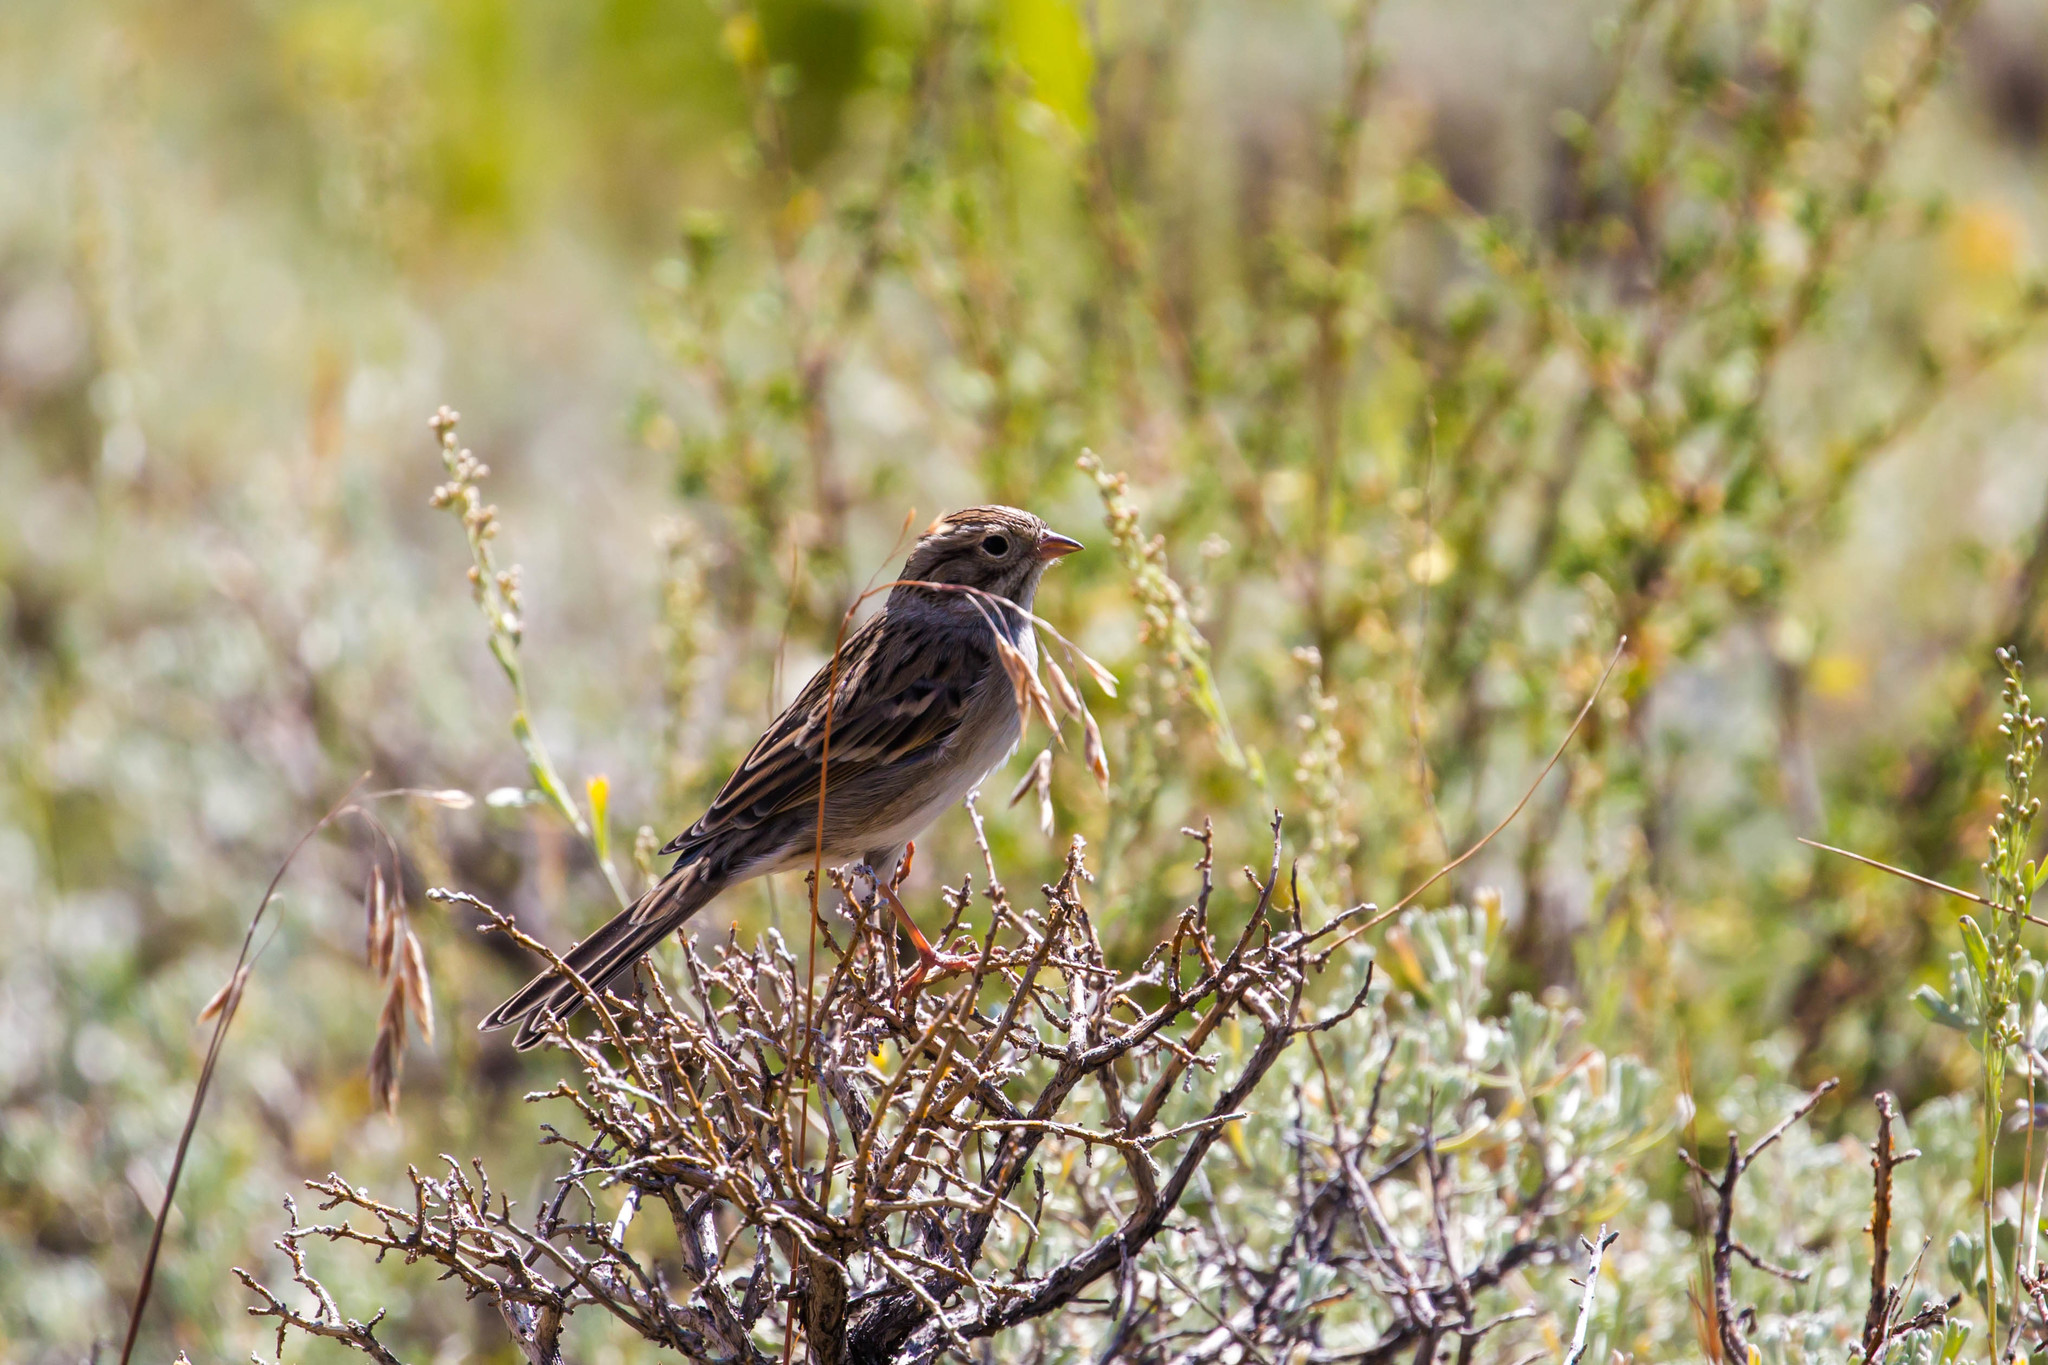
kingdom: Animalia
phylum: Chordata
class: Aves
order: Passeriformes
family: Passerellidae
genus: Pooecetes
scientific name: Pooecetes gramineus
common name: Vesper sparrow
